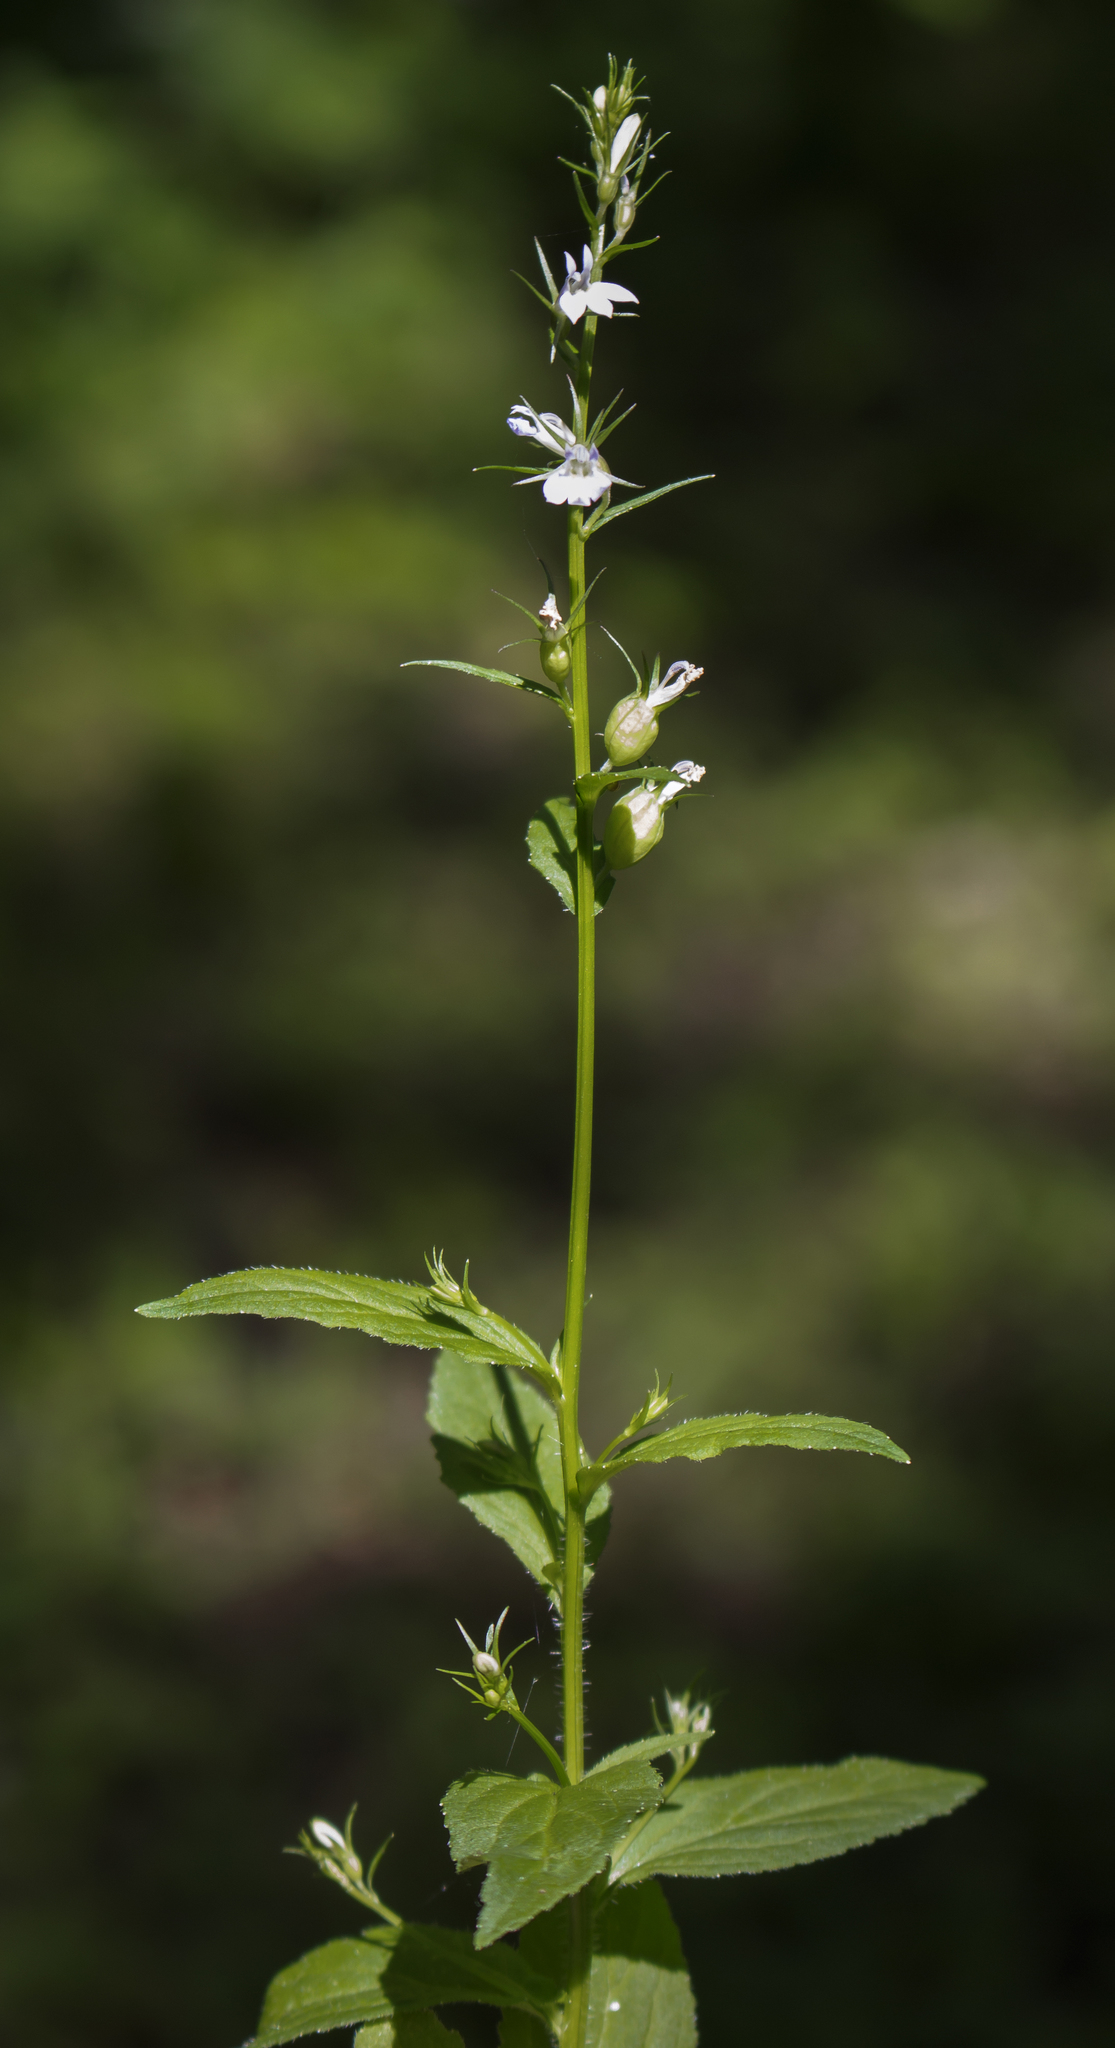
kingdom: Plantae
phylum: Tracheophyta
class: Magnoliopsida
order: Asterales
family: Campanulaceae
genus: Lobelia
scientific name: Lobelia inflata
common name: Indian tobacco
